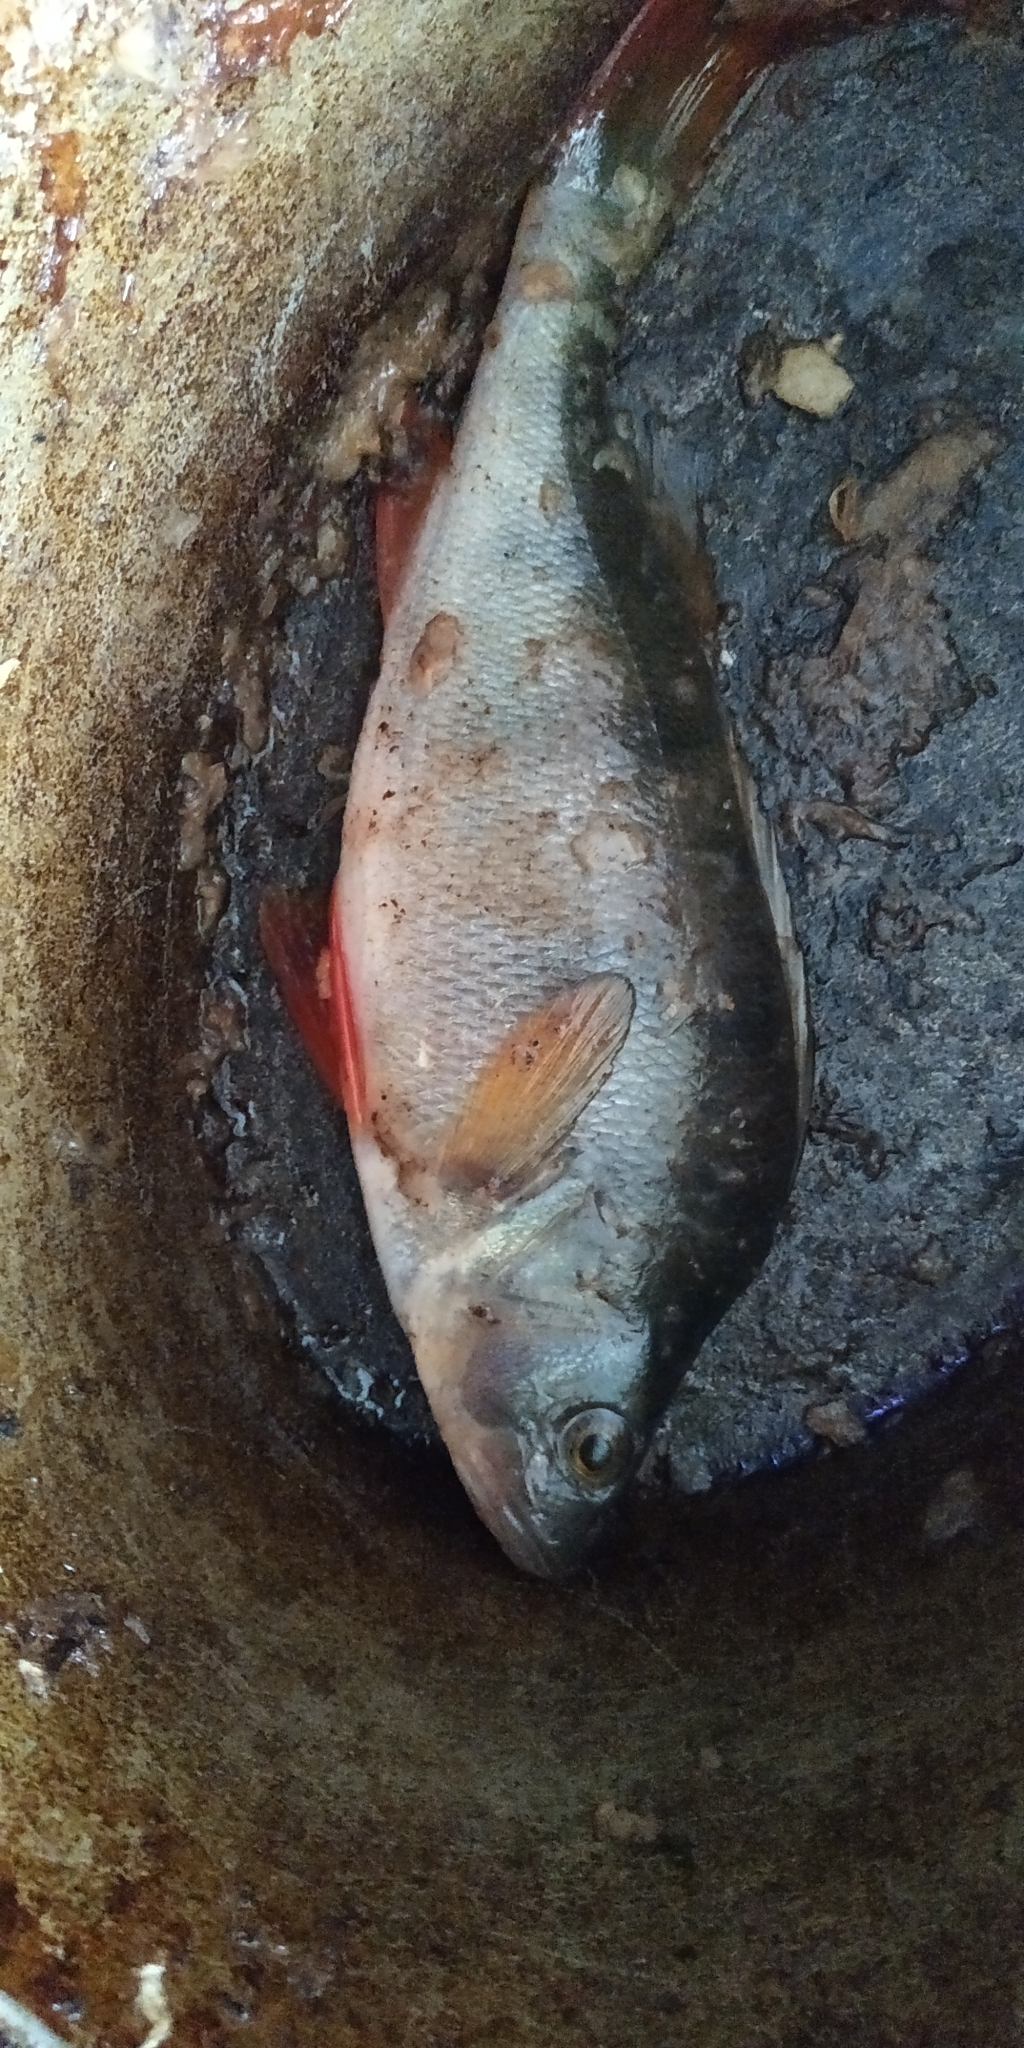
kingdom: Animalia
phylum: Chordata
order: Perciformes
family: Percidae
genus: Perca
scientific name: Perca fluviatilis
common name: Perch
